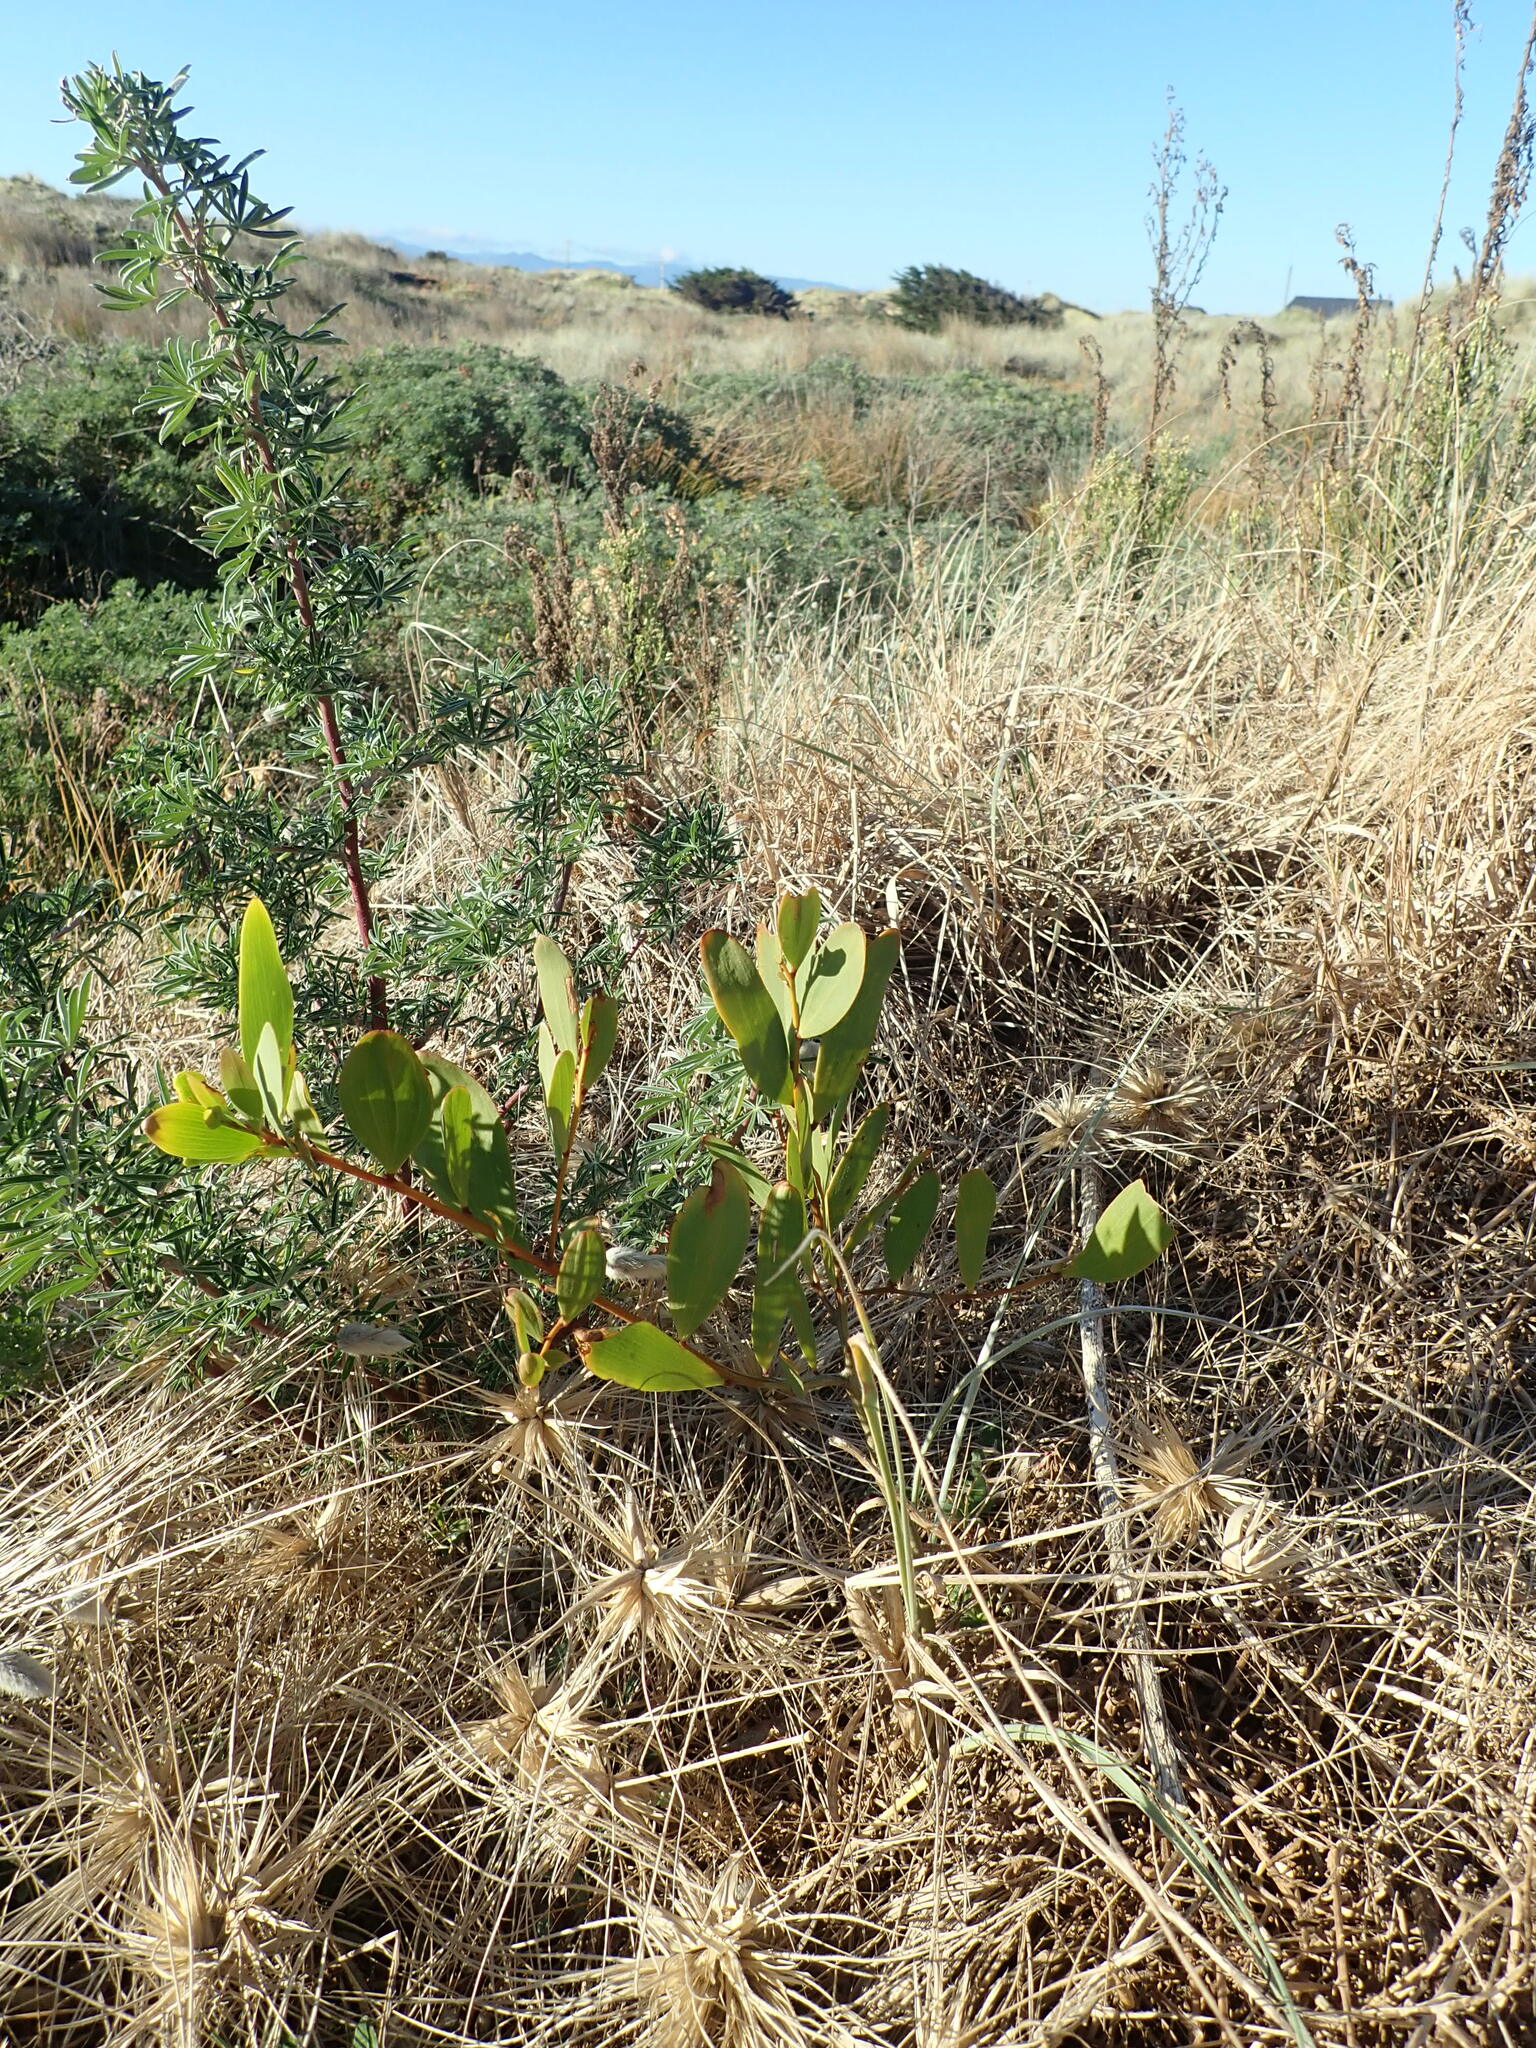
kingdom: Plantae
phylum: Tracheophyta
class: Magnoliopsida
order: Fabales
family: Fabaceae
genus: Acacia
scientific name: Acacia longifolia
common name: Sydney golden wattle
